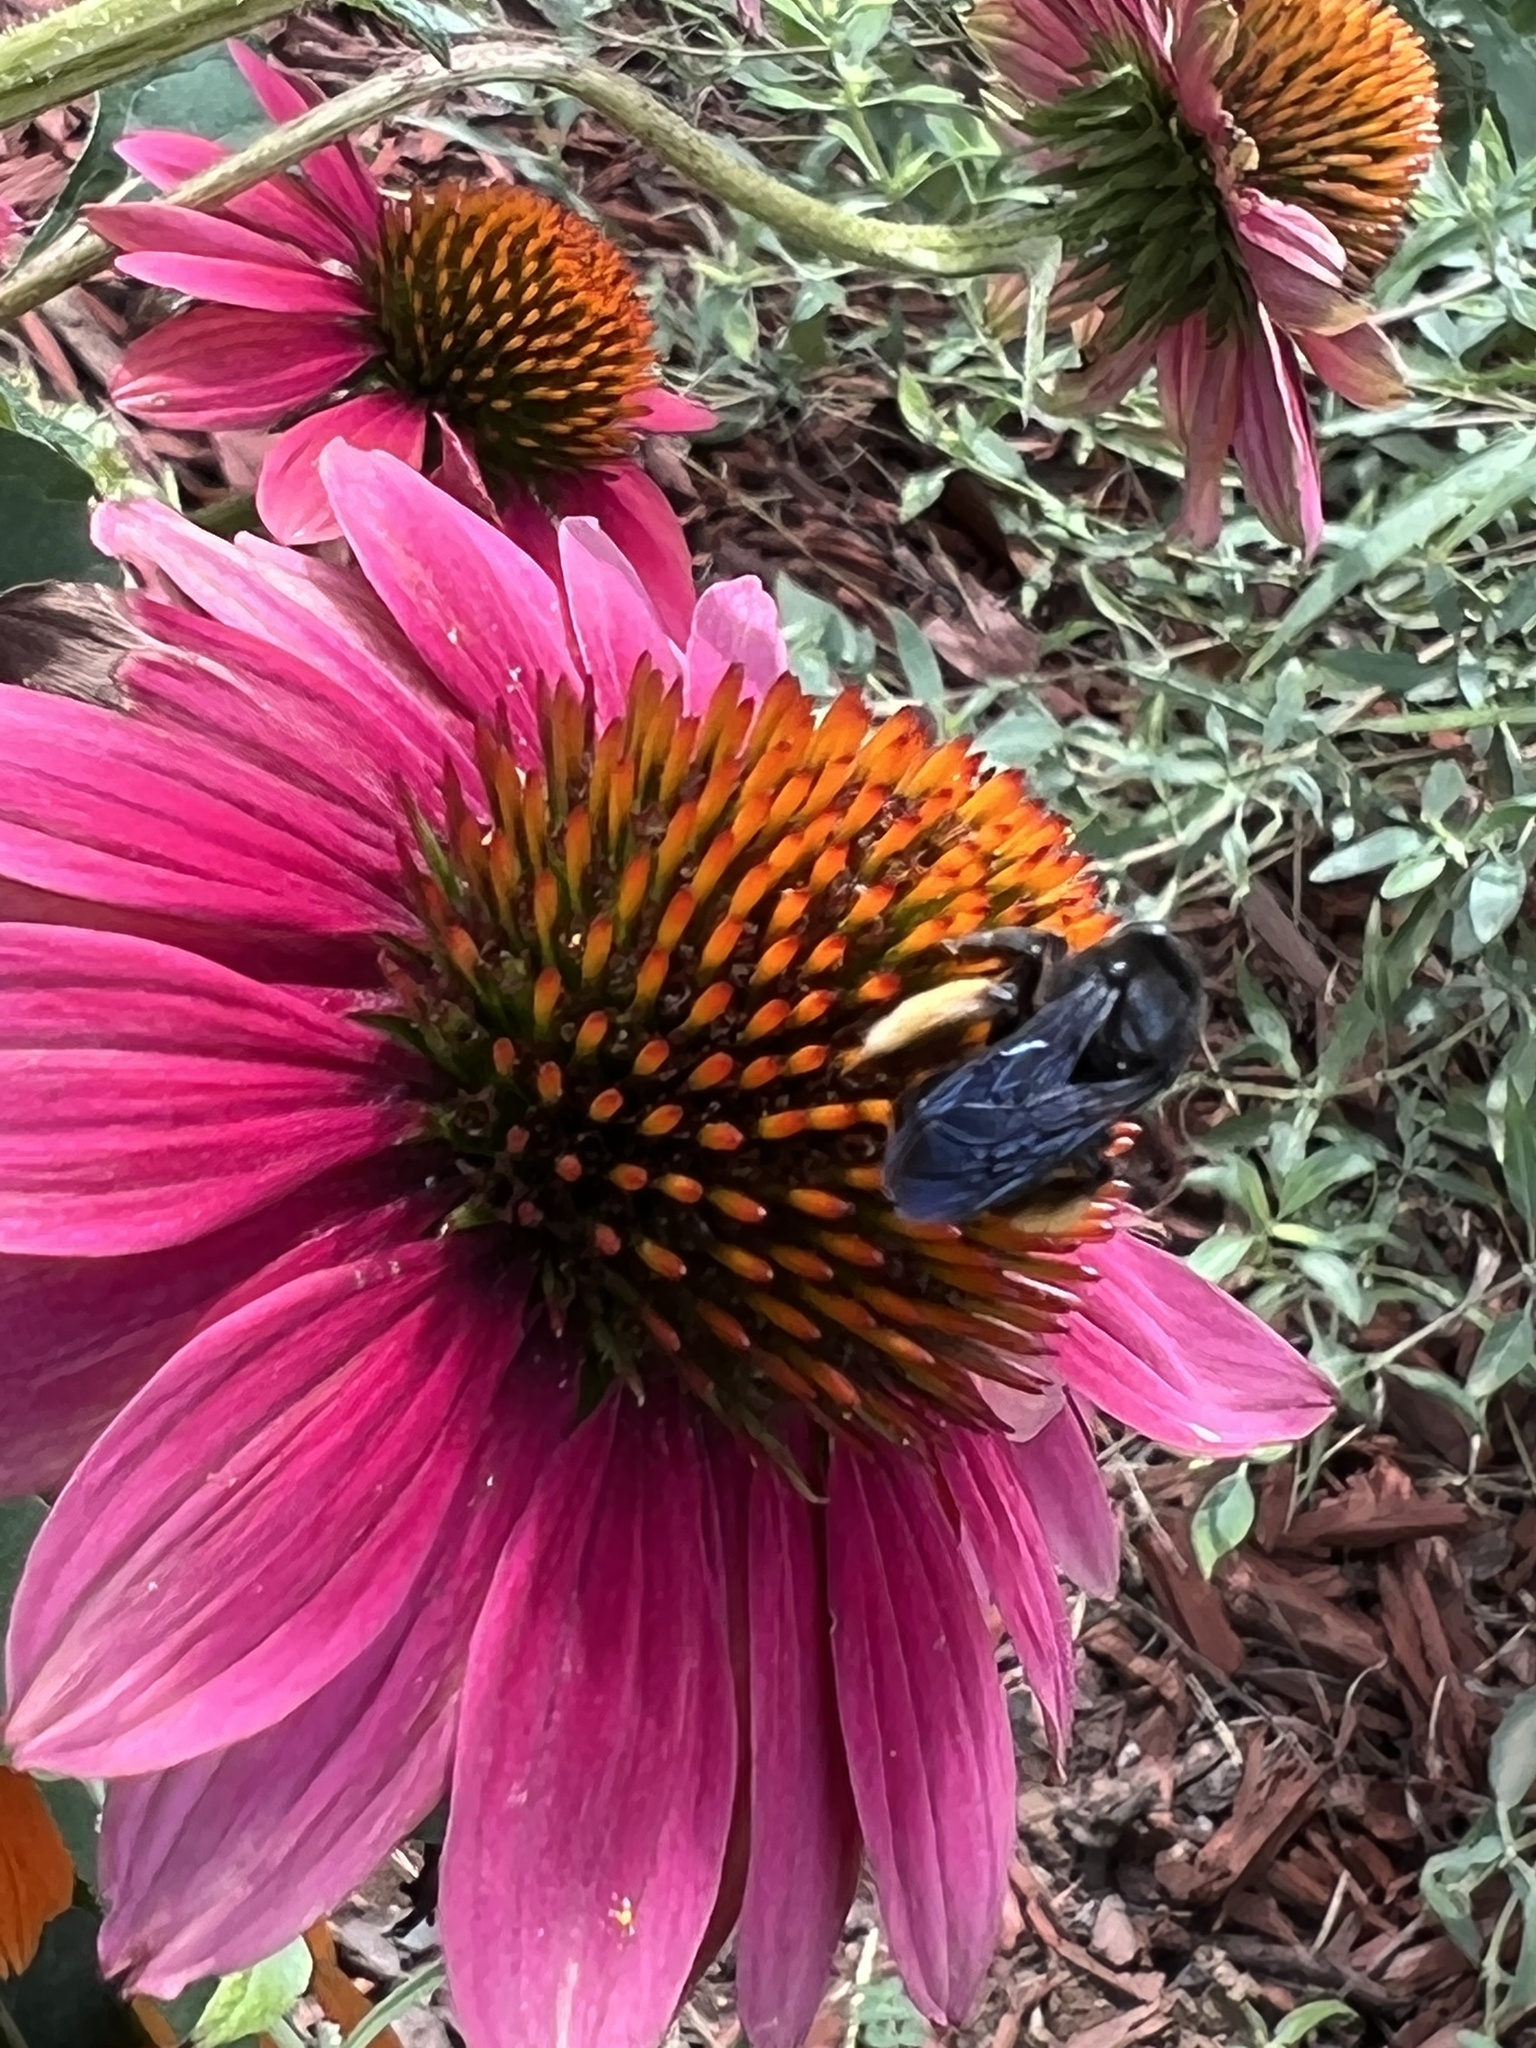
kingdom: Animalia
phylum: Arthropoda
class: Insecta
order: Hymenoptera
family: Apidae
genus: Melissodes
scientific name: Melissodes bimaculatus
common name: Two-spotted long-horned bee
